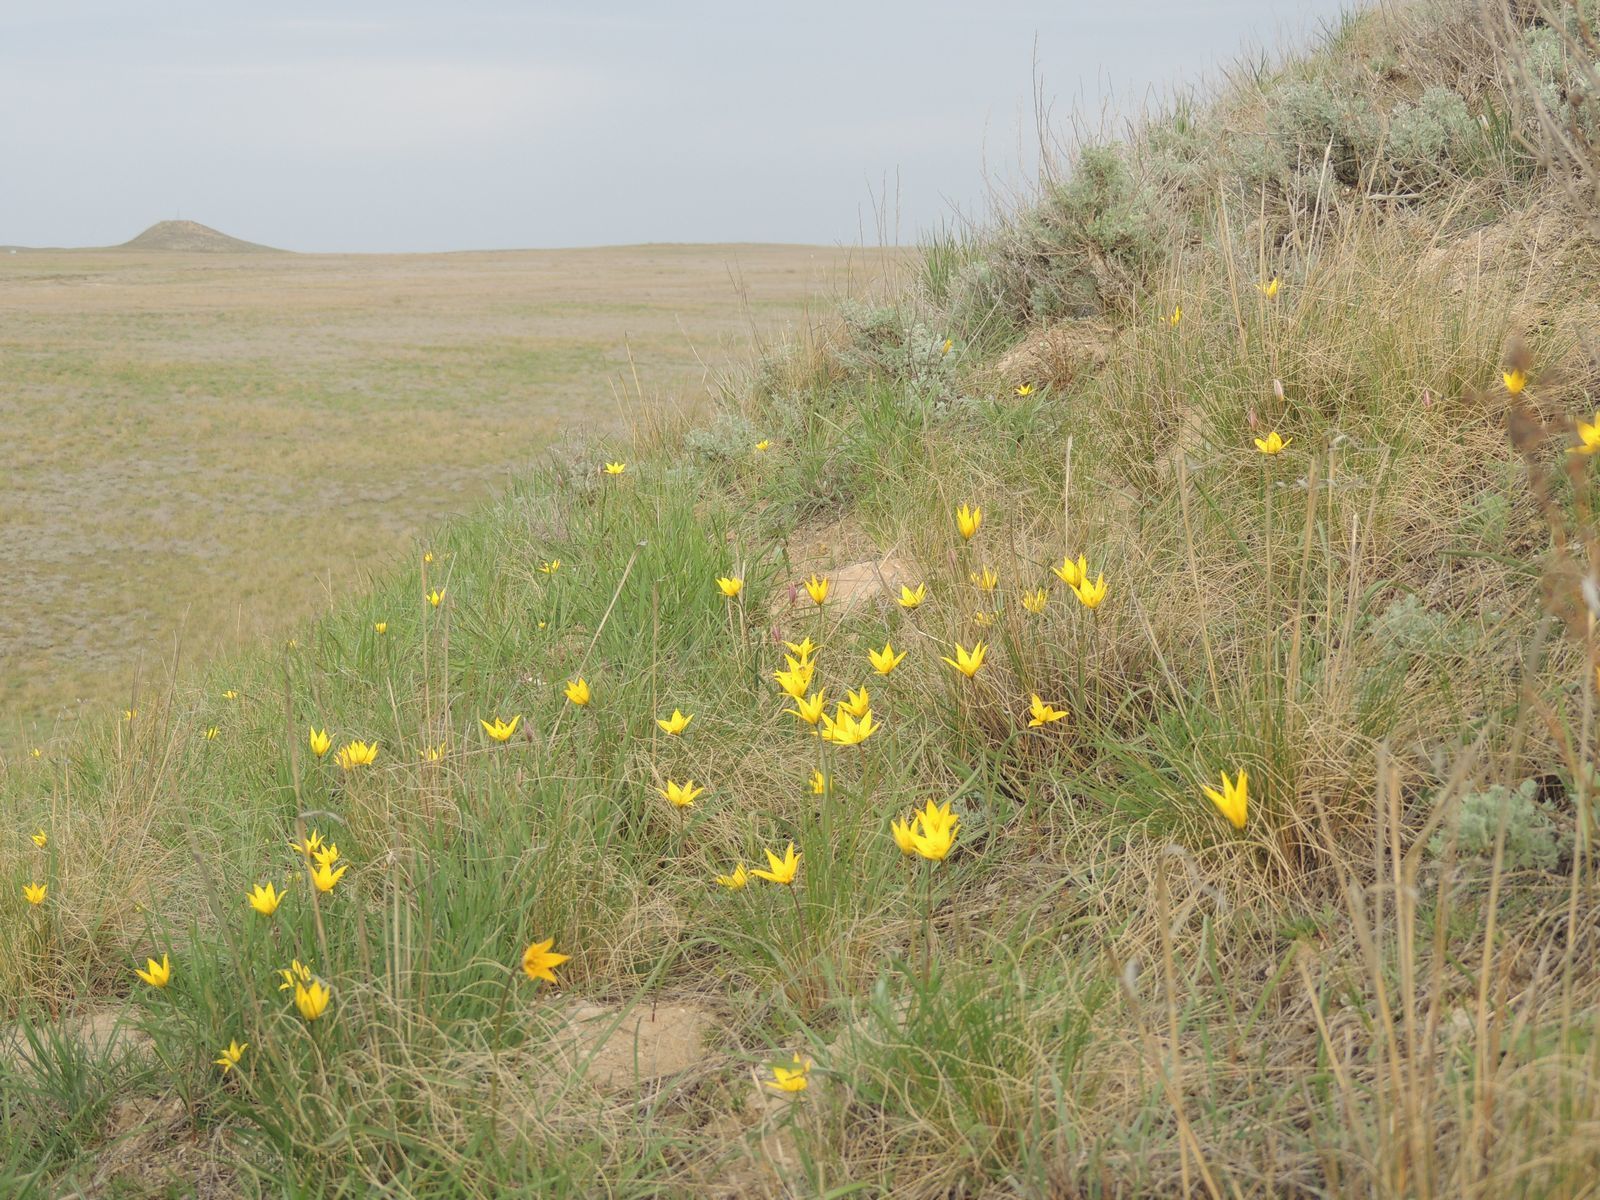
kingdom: Plantae
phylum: Tracheophyta
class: Liliopsida
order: Liliales
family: Liliaceae
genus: Tulipa
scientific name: Tulipa sylvestris
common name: Wild tulip
